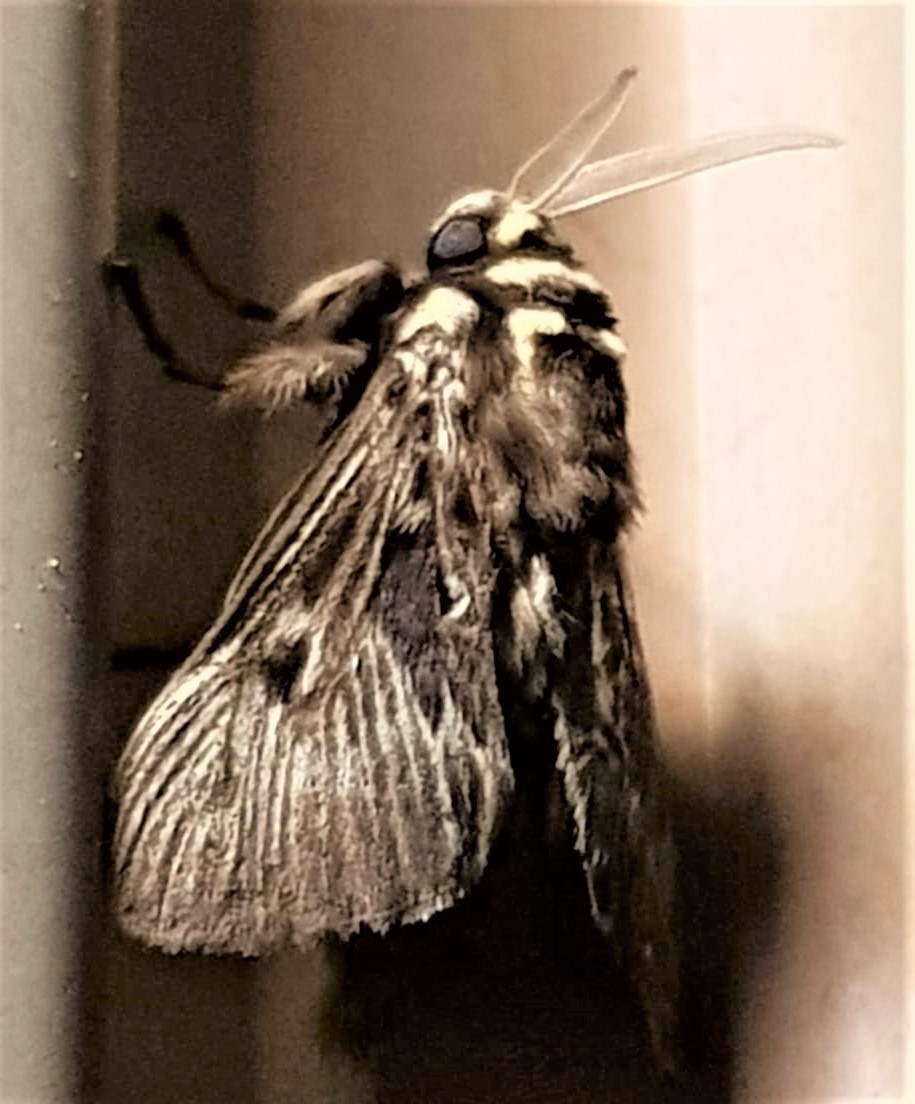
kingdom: Animalia
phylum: Arthropoda
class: Insecta
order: Lepidoptera
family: Megalopygidae
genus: Megalopyge
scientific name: Megalopyge albicollis
